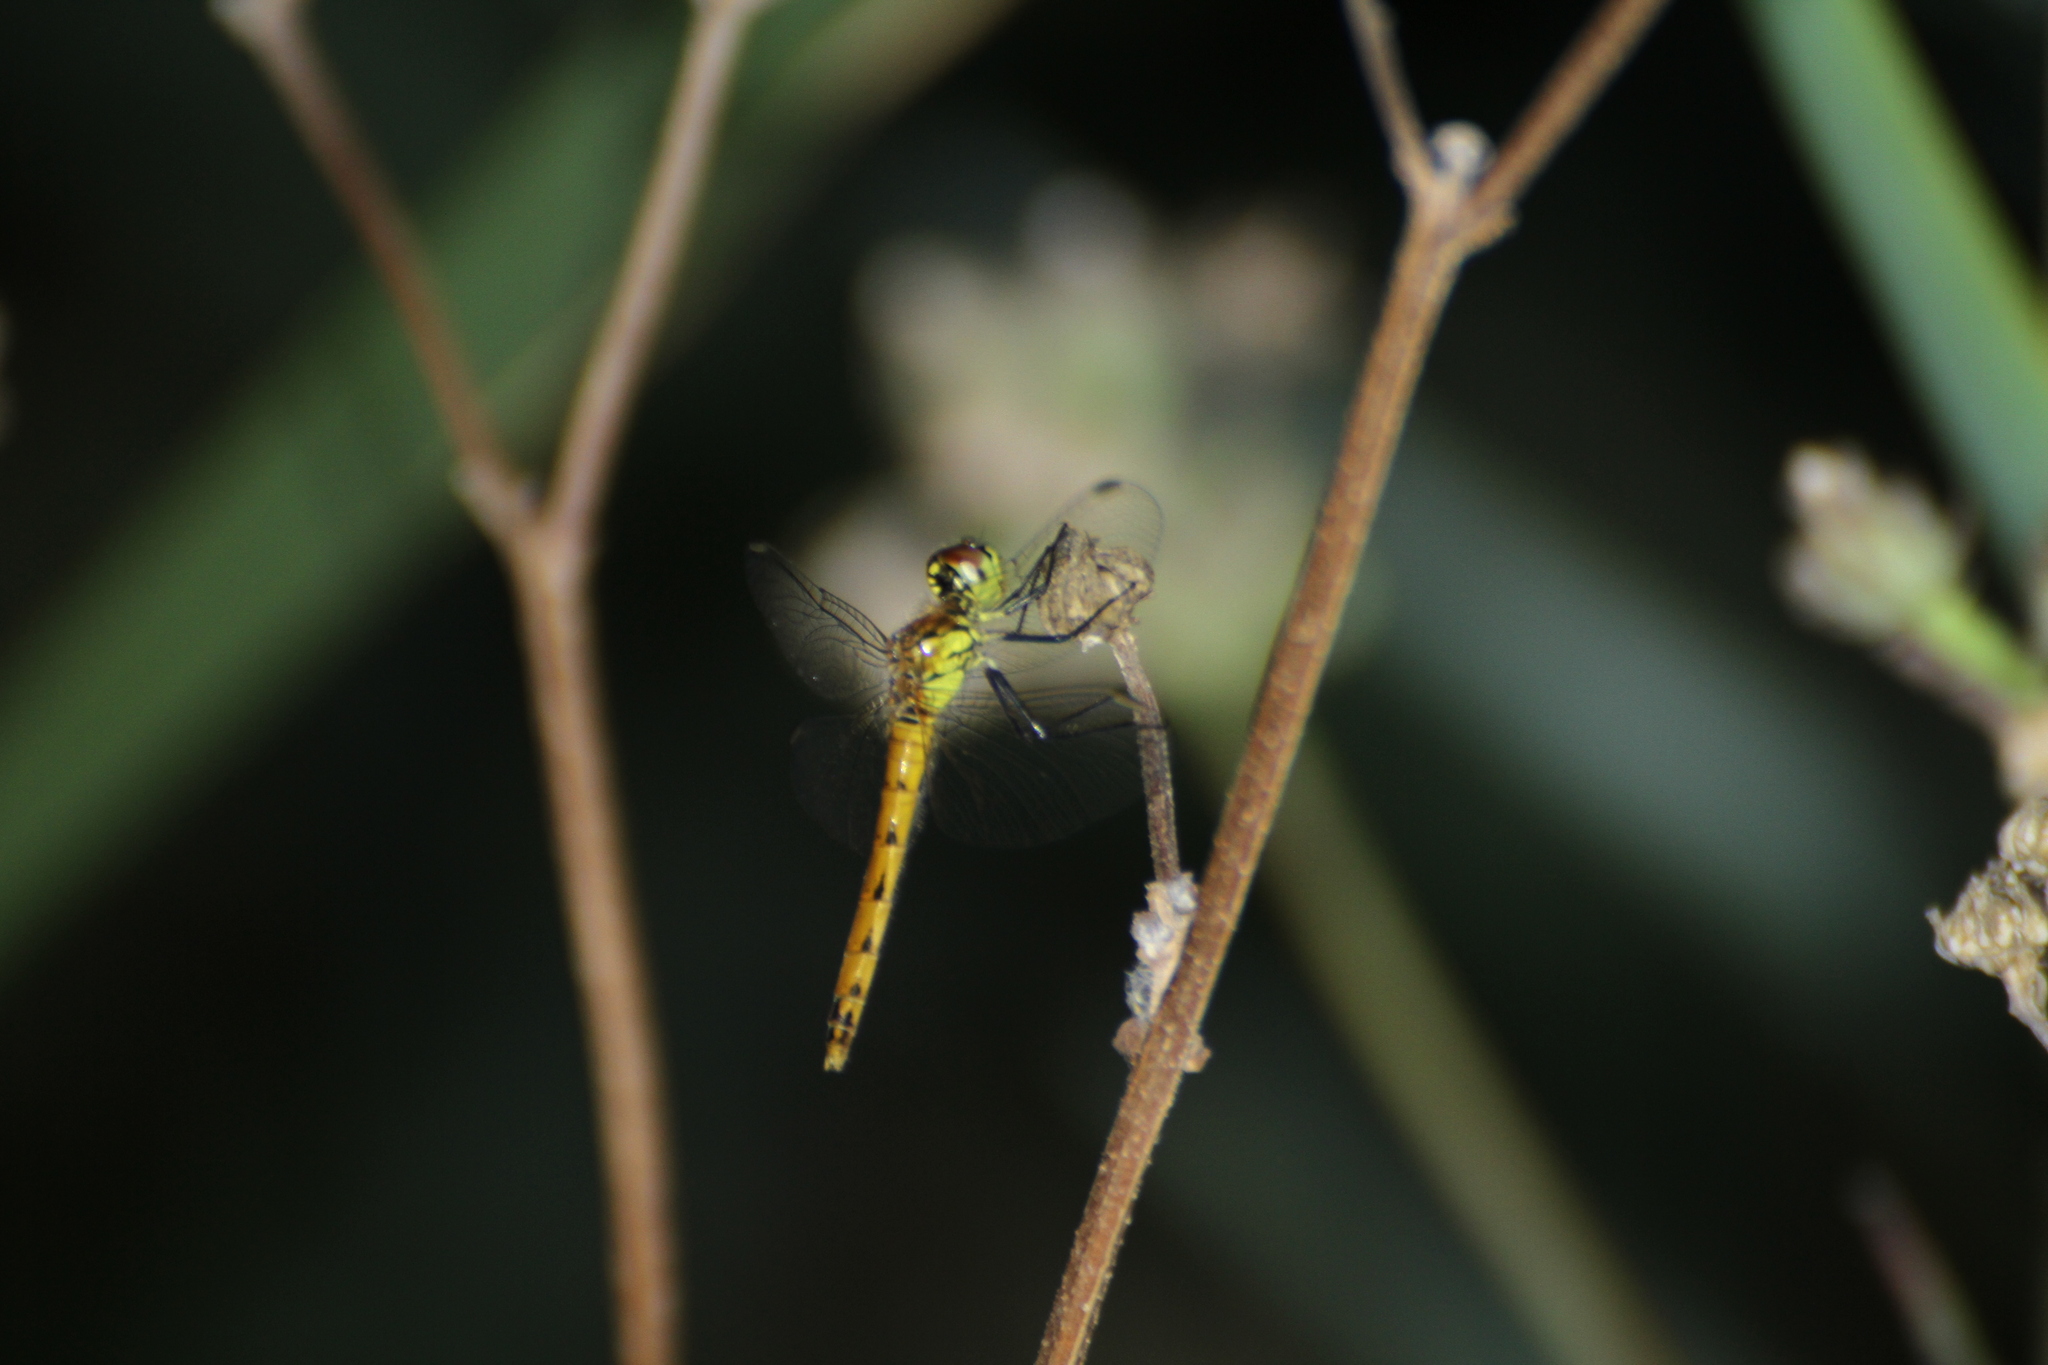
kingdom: Animalia
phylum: Arthropoda
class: Insecta
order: Odonata
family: Libellulidae
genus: Sympetrum
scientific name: Sympetrum depressiusculum
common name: Spotted darter
